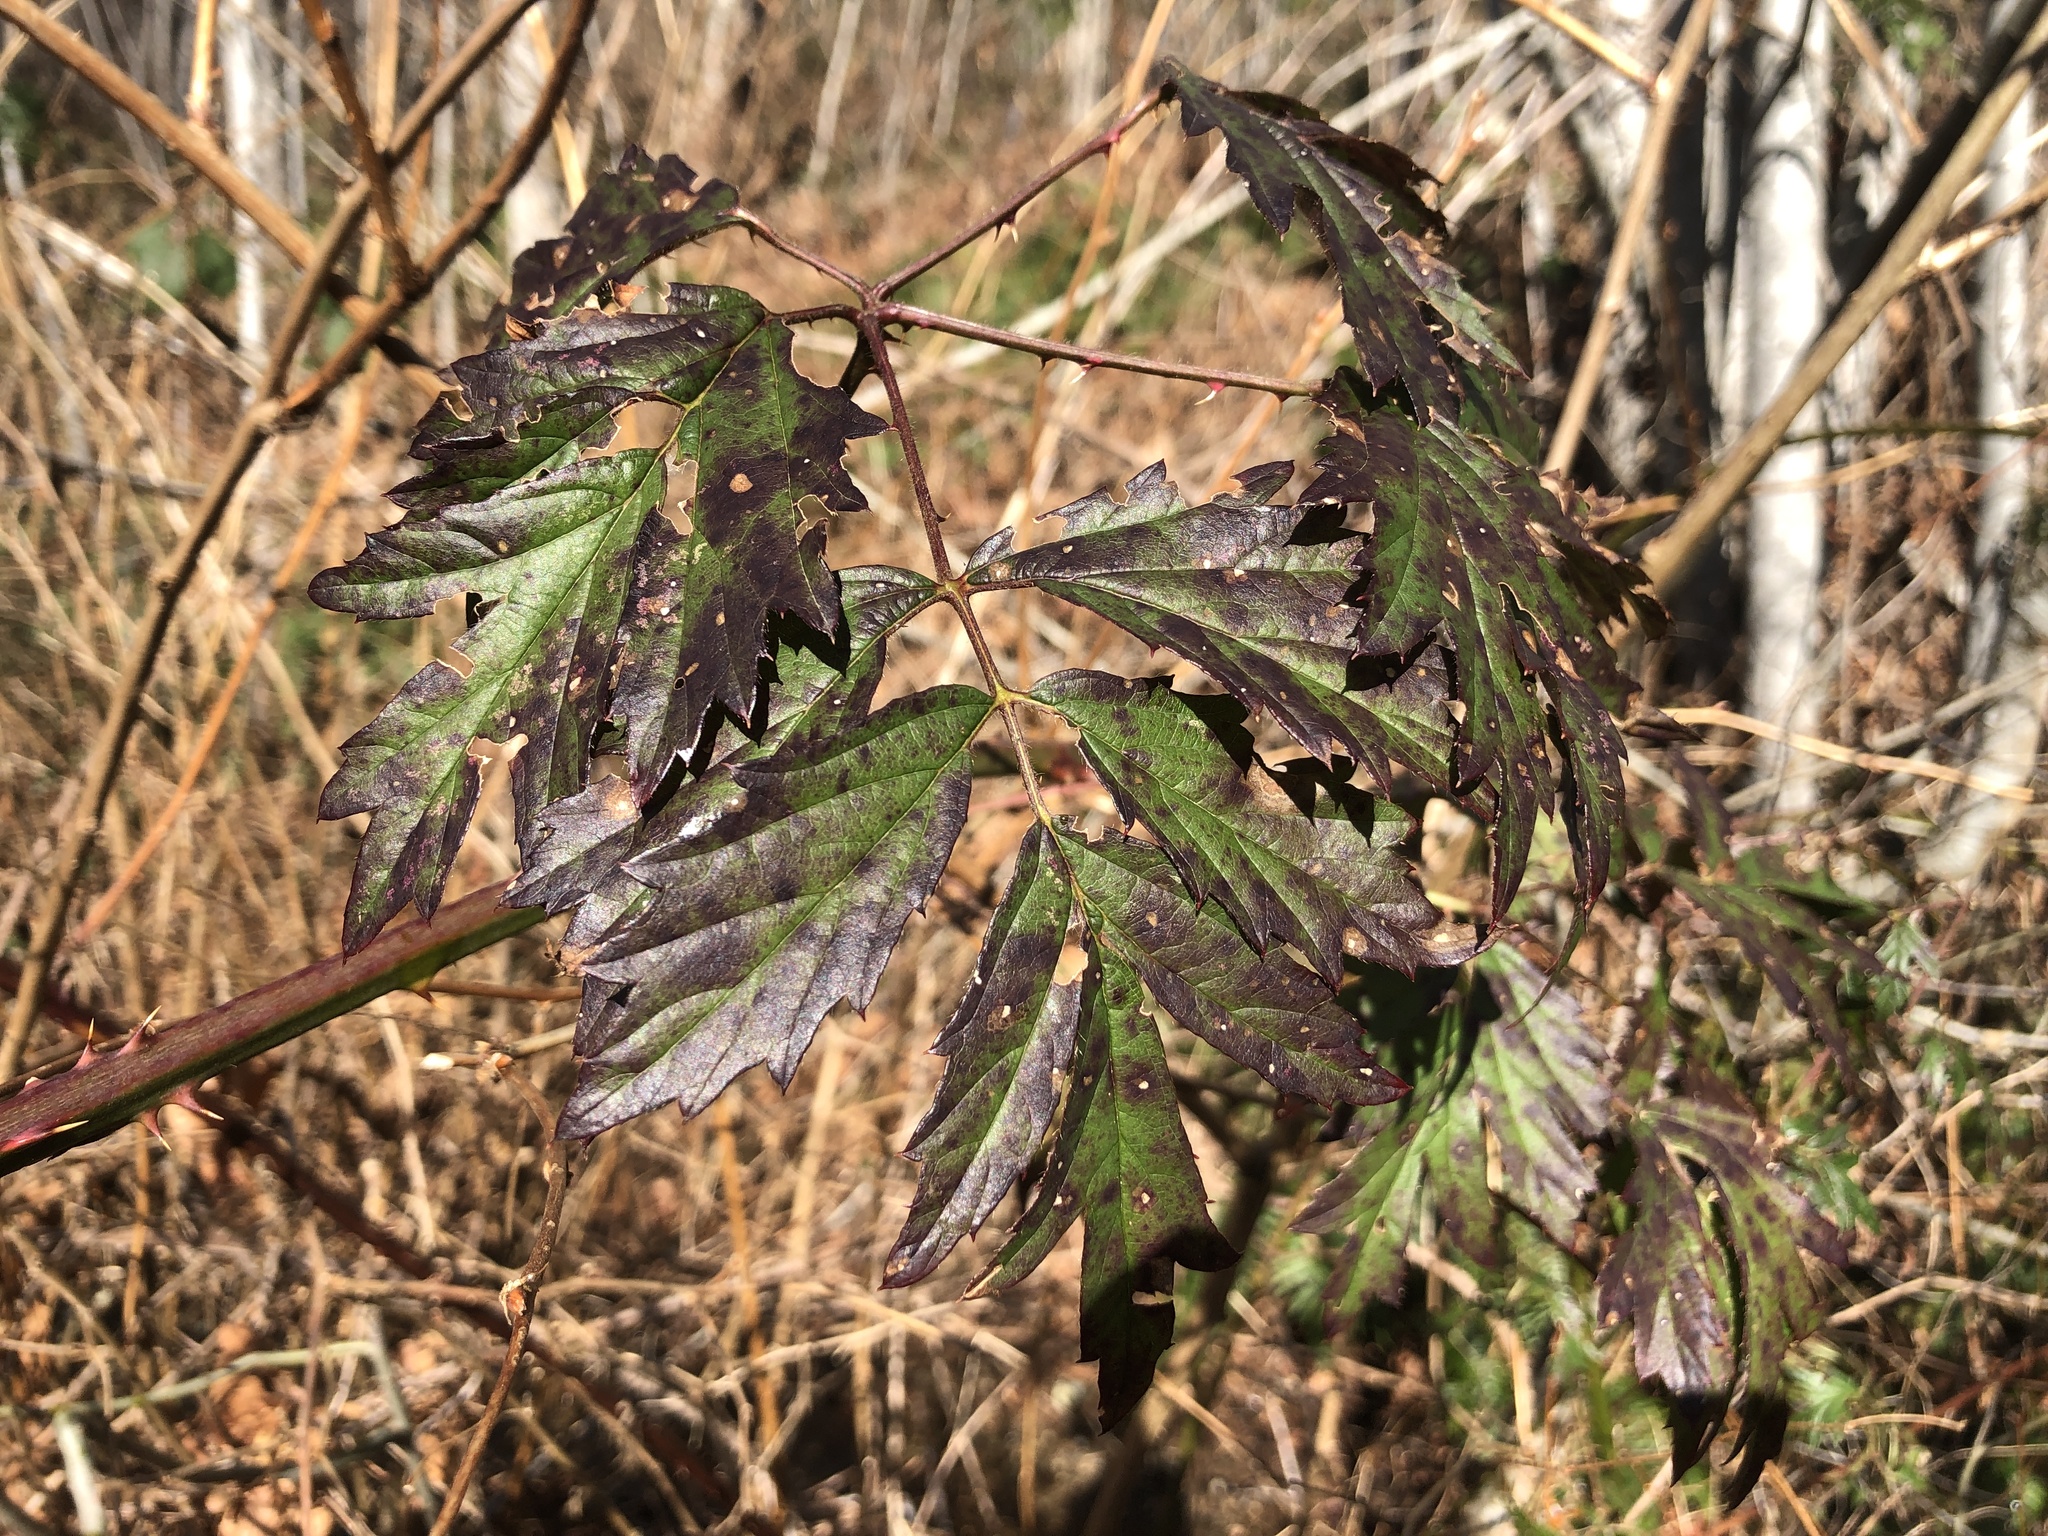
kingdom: Plantae
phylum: Tracheophyta
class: Magnoliopsida
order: Rosales
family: Rosaceae
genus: Rubus
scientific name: Rubus laciniatus
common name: Evergreen blackberry
